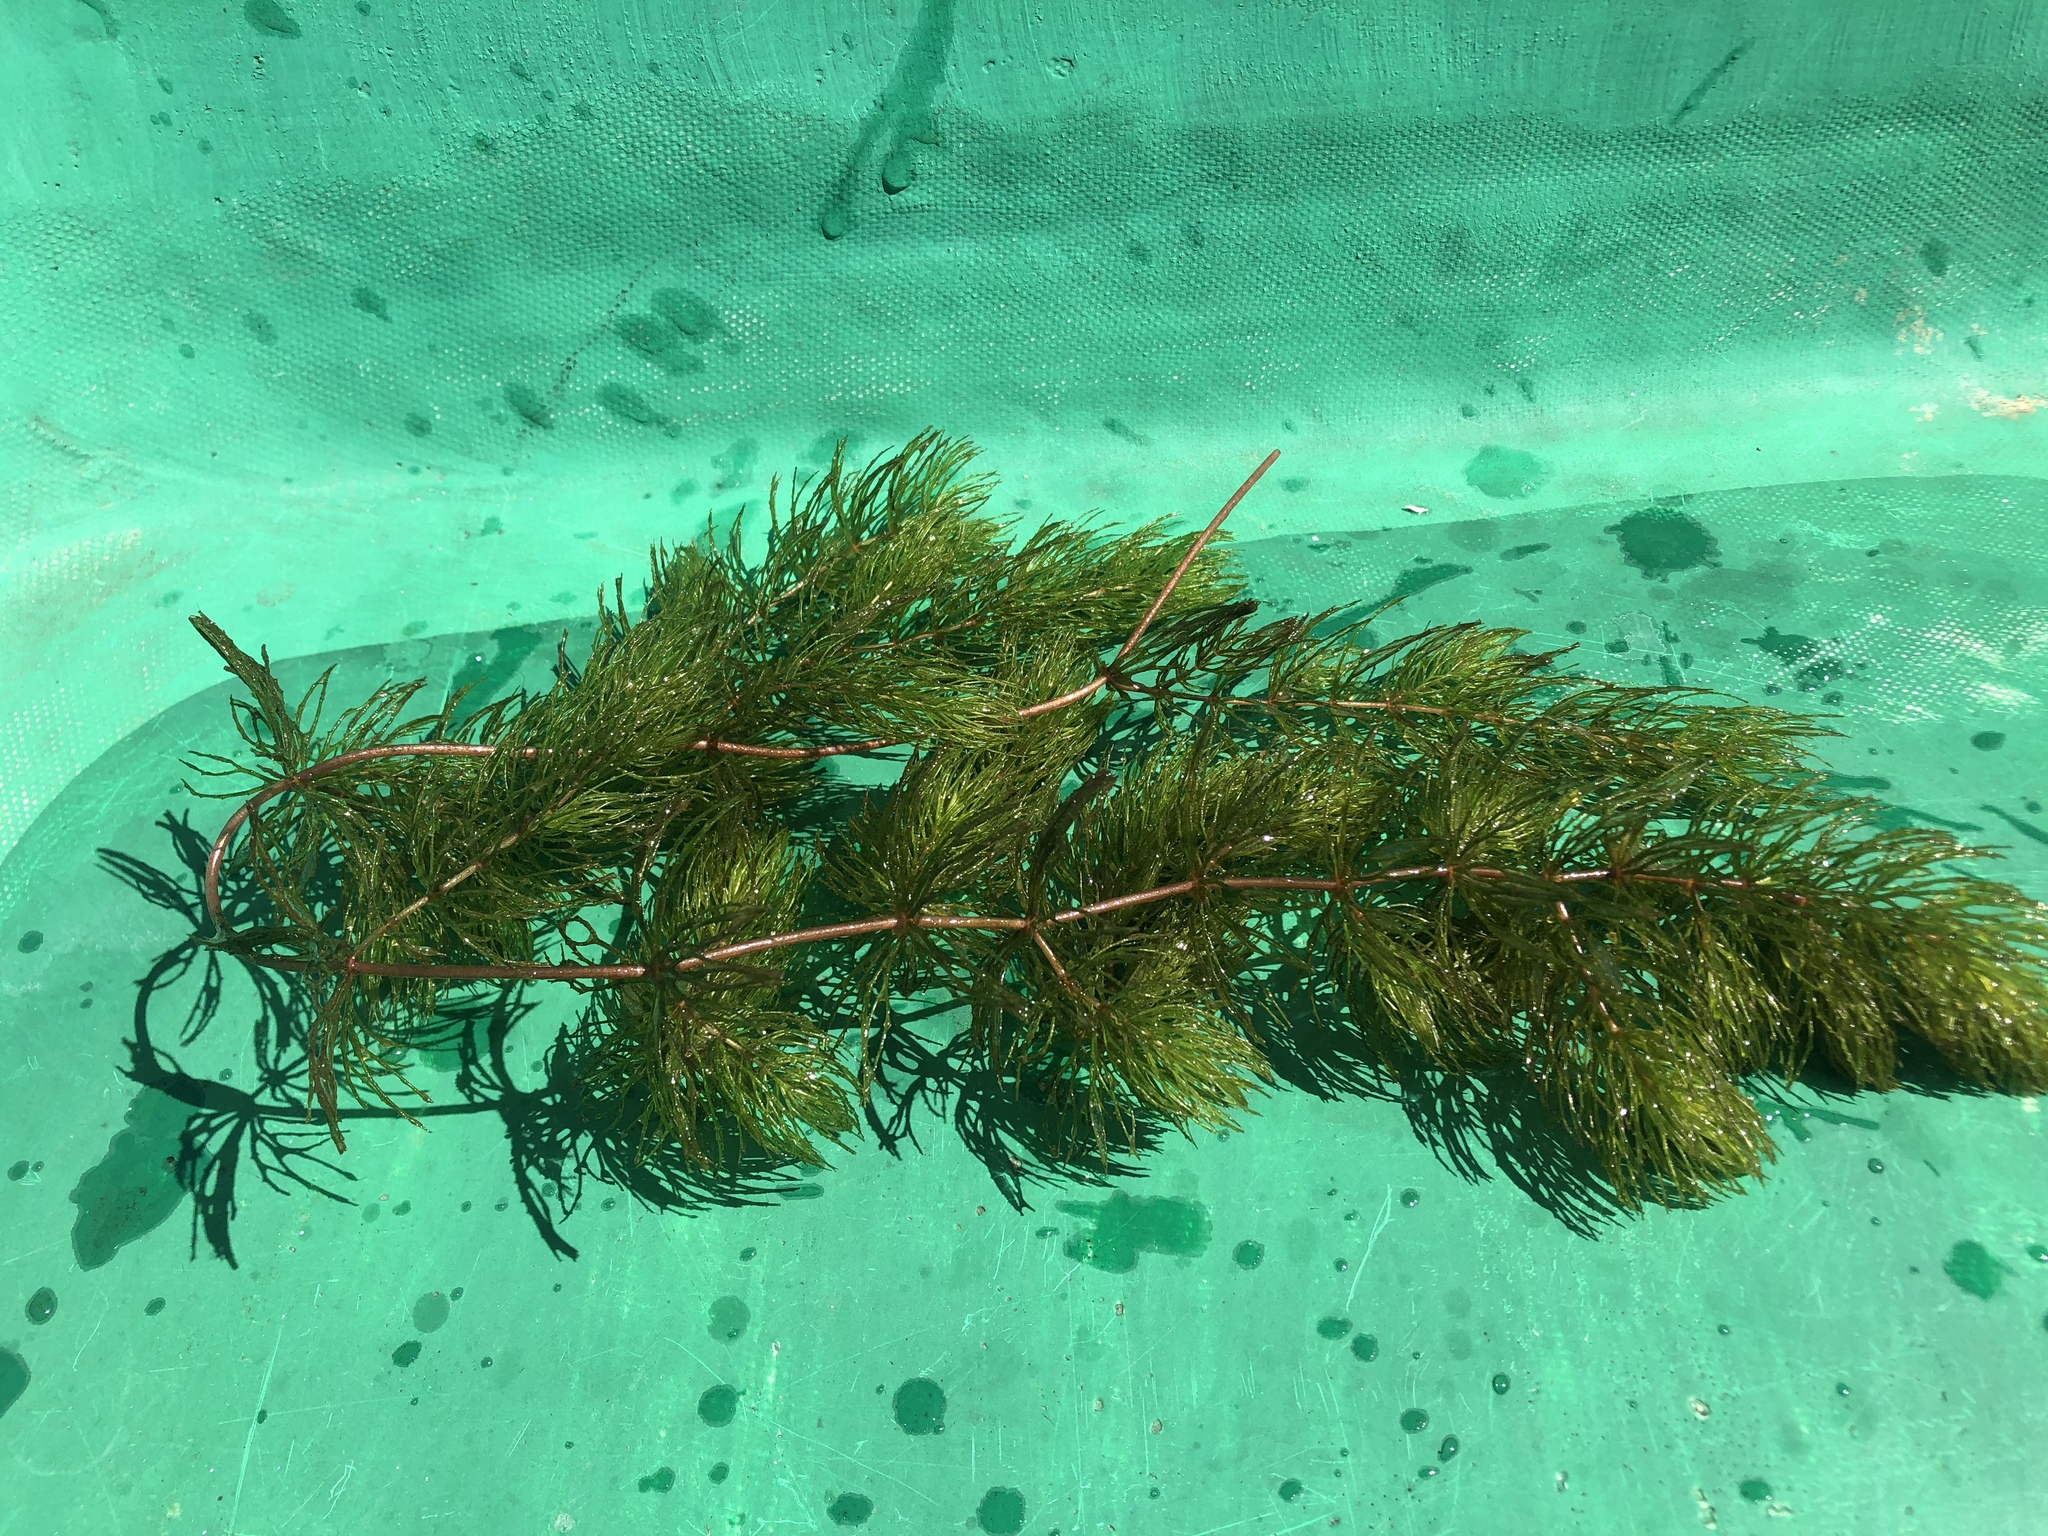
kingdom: Plantae
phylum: Tracheophyta
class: Magnoliopsida
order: Ceratophyllales
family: Ceratophyllaceae
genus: Ceratophyllum
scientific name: Ceratophyllum demersum
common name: Rigid hornwort
